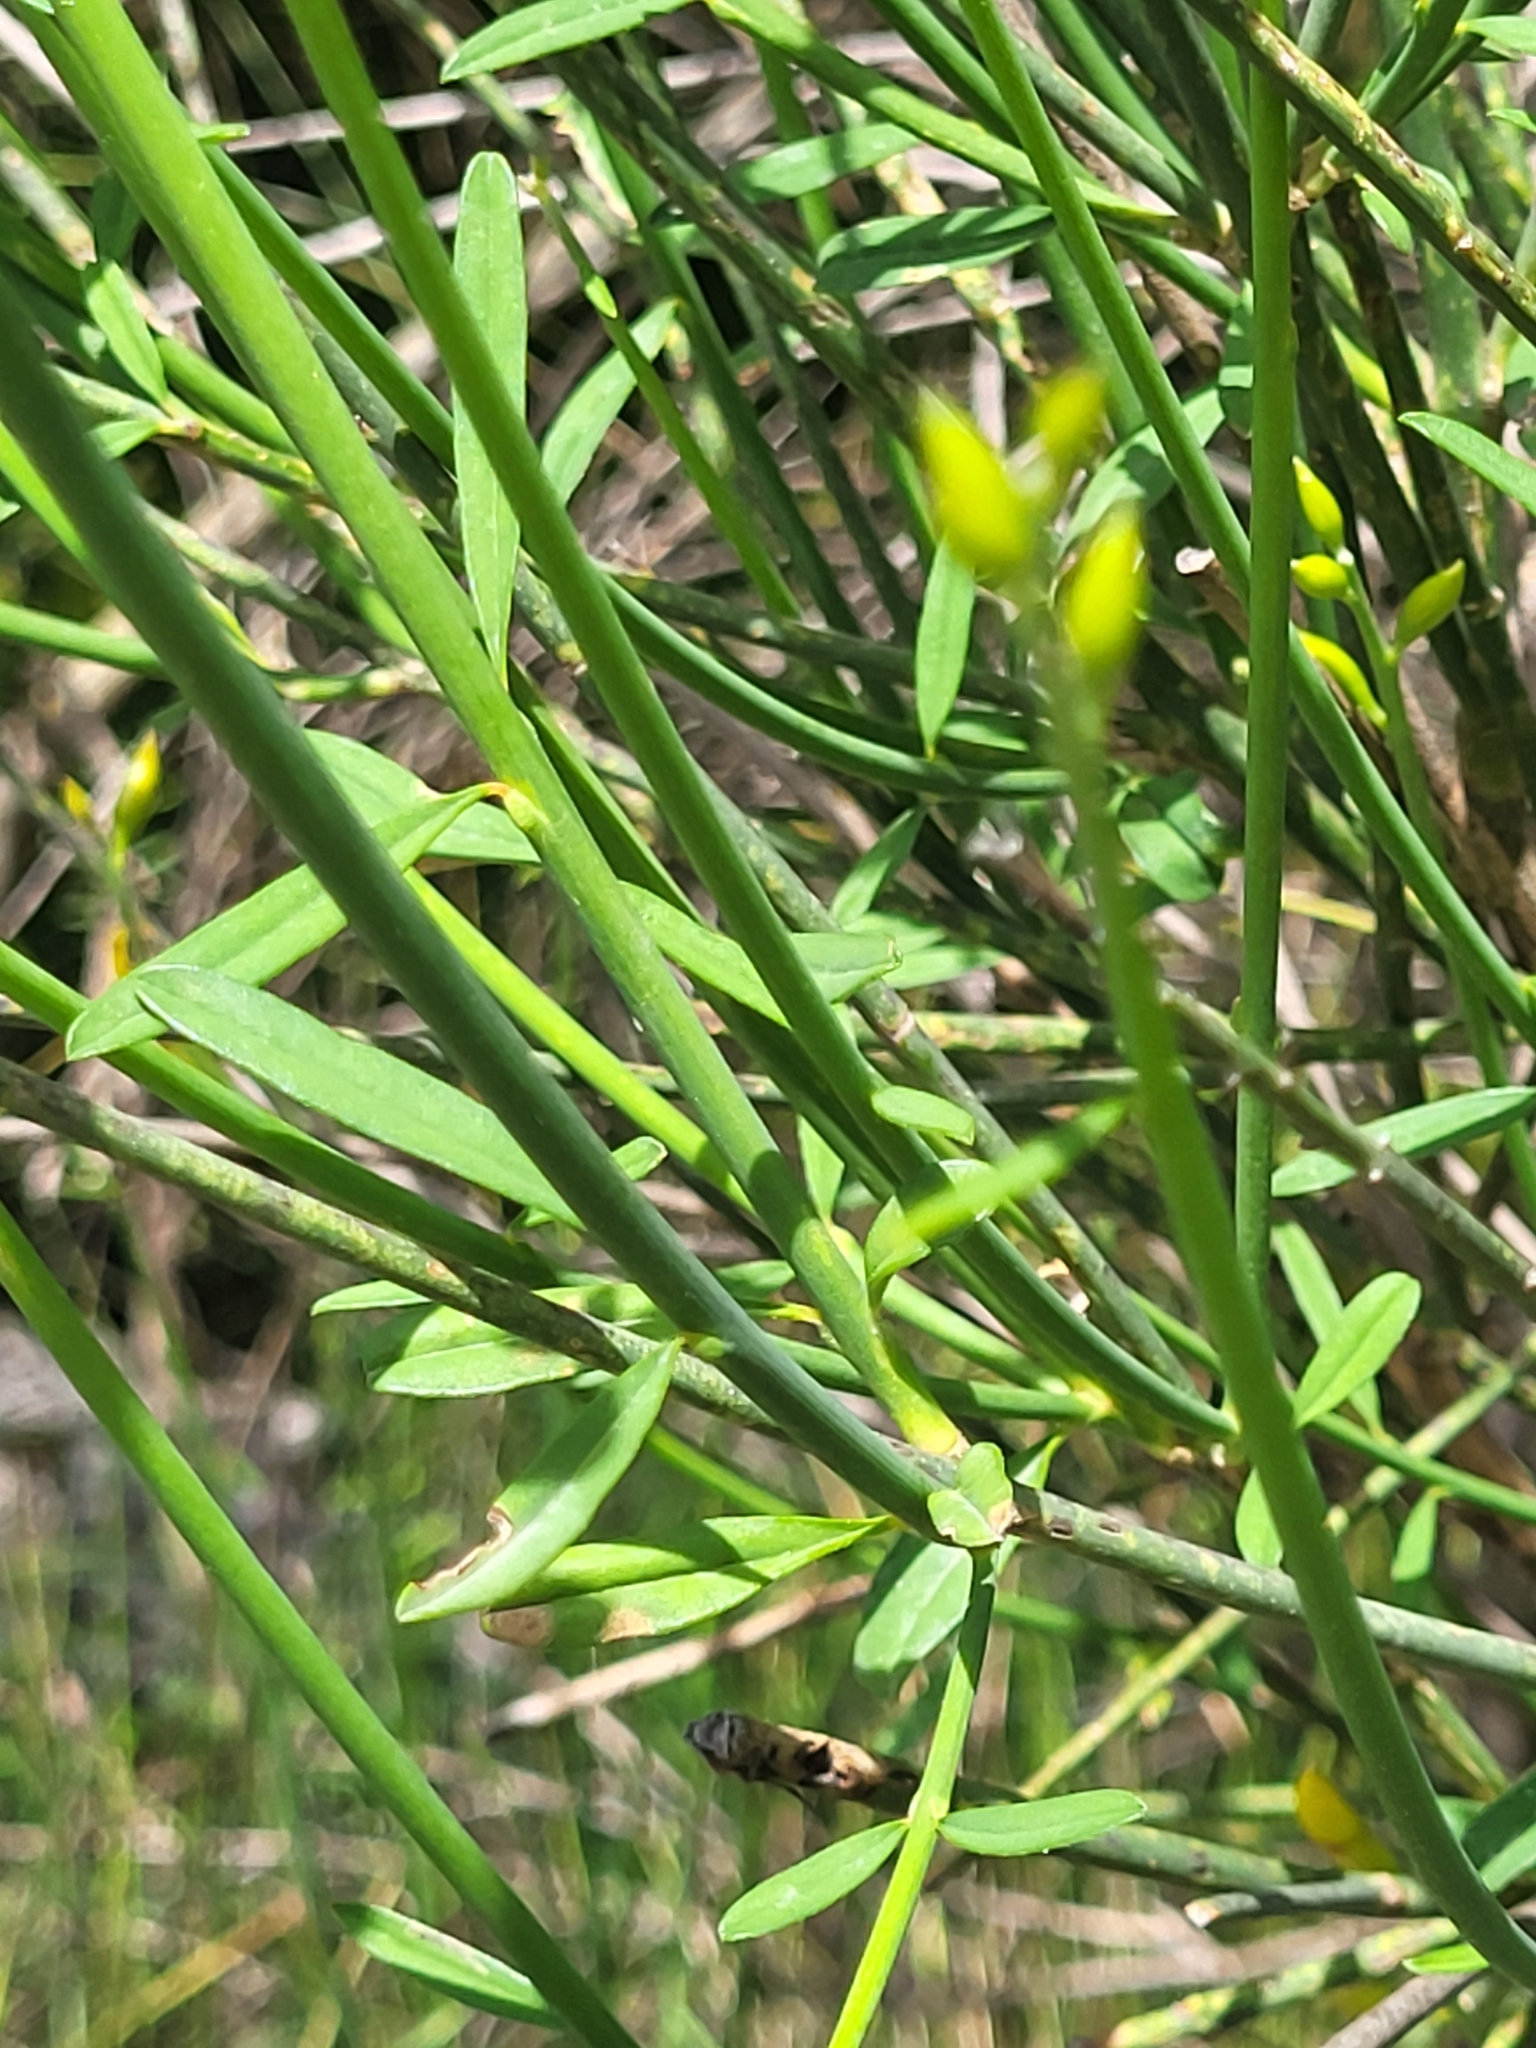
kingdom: Plantae
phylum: Tracheophyta
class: Magnoliopsida
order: Fabales
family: Fabaceae
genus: Spartium
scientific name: Spartium junceum
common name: Spanish broom
